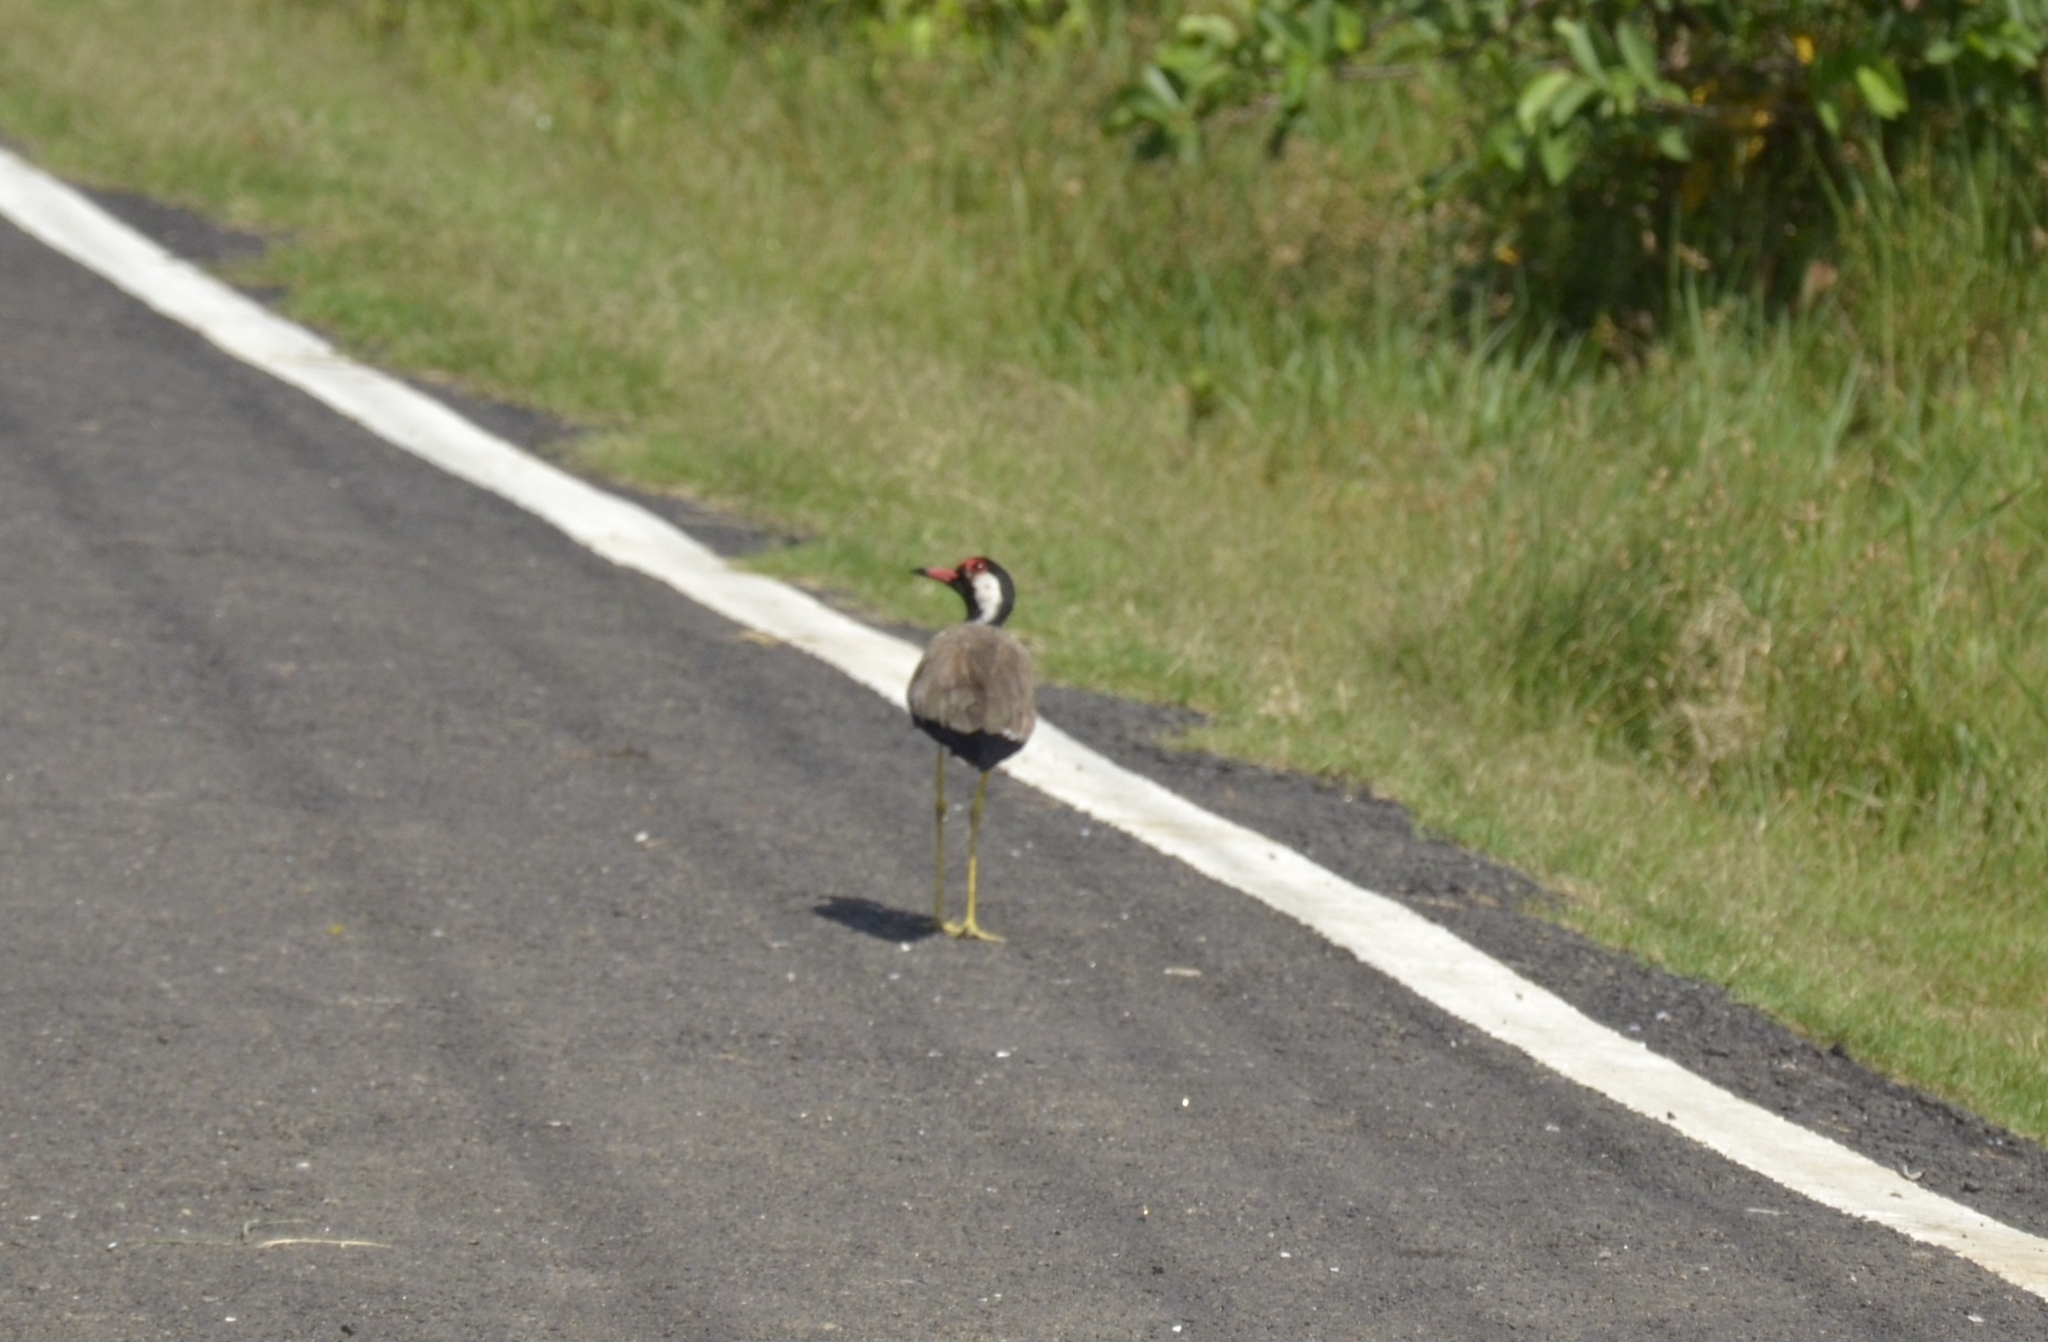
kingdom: Animalia
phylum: Chordata
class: Aves
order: Charadriiformes
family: Charadriidae
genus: Vanellus
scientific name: Vanellus indicus
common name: Red-wattled lapwing
